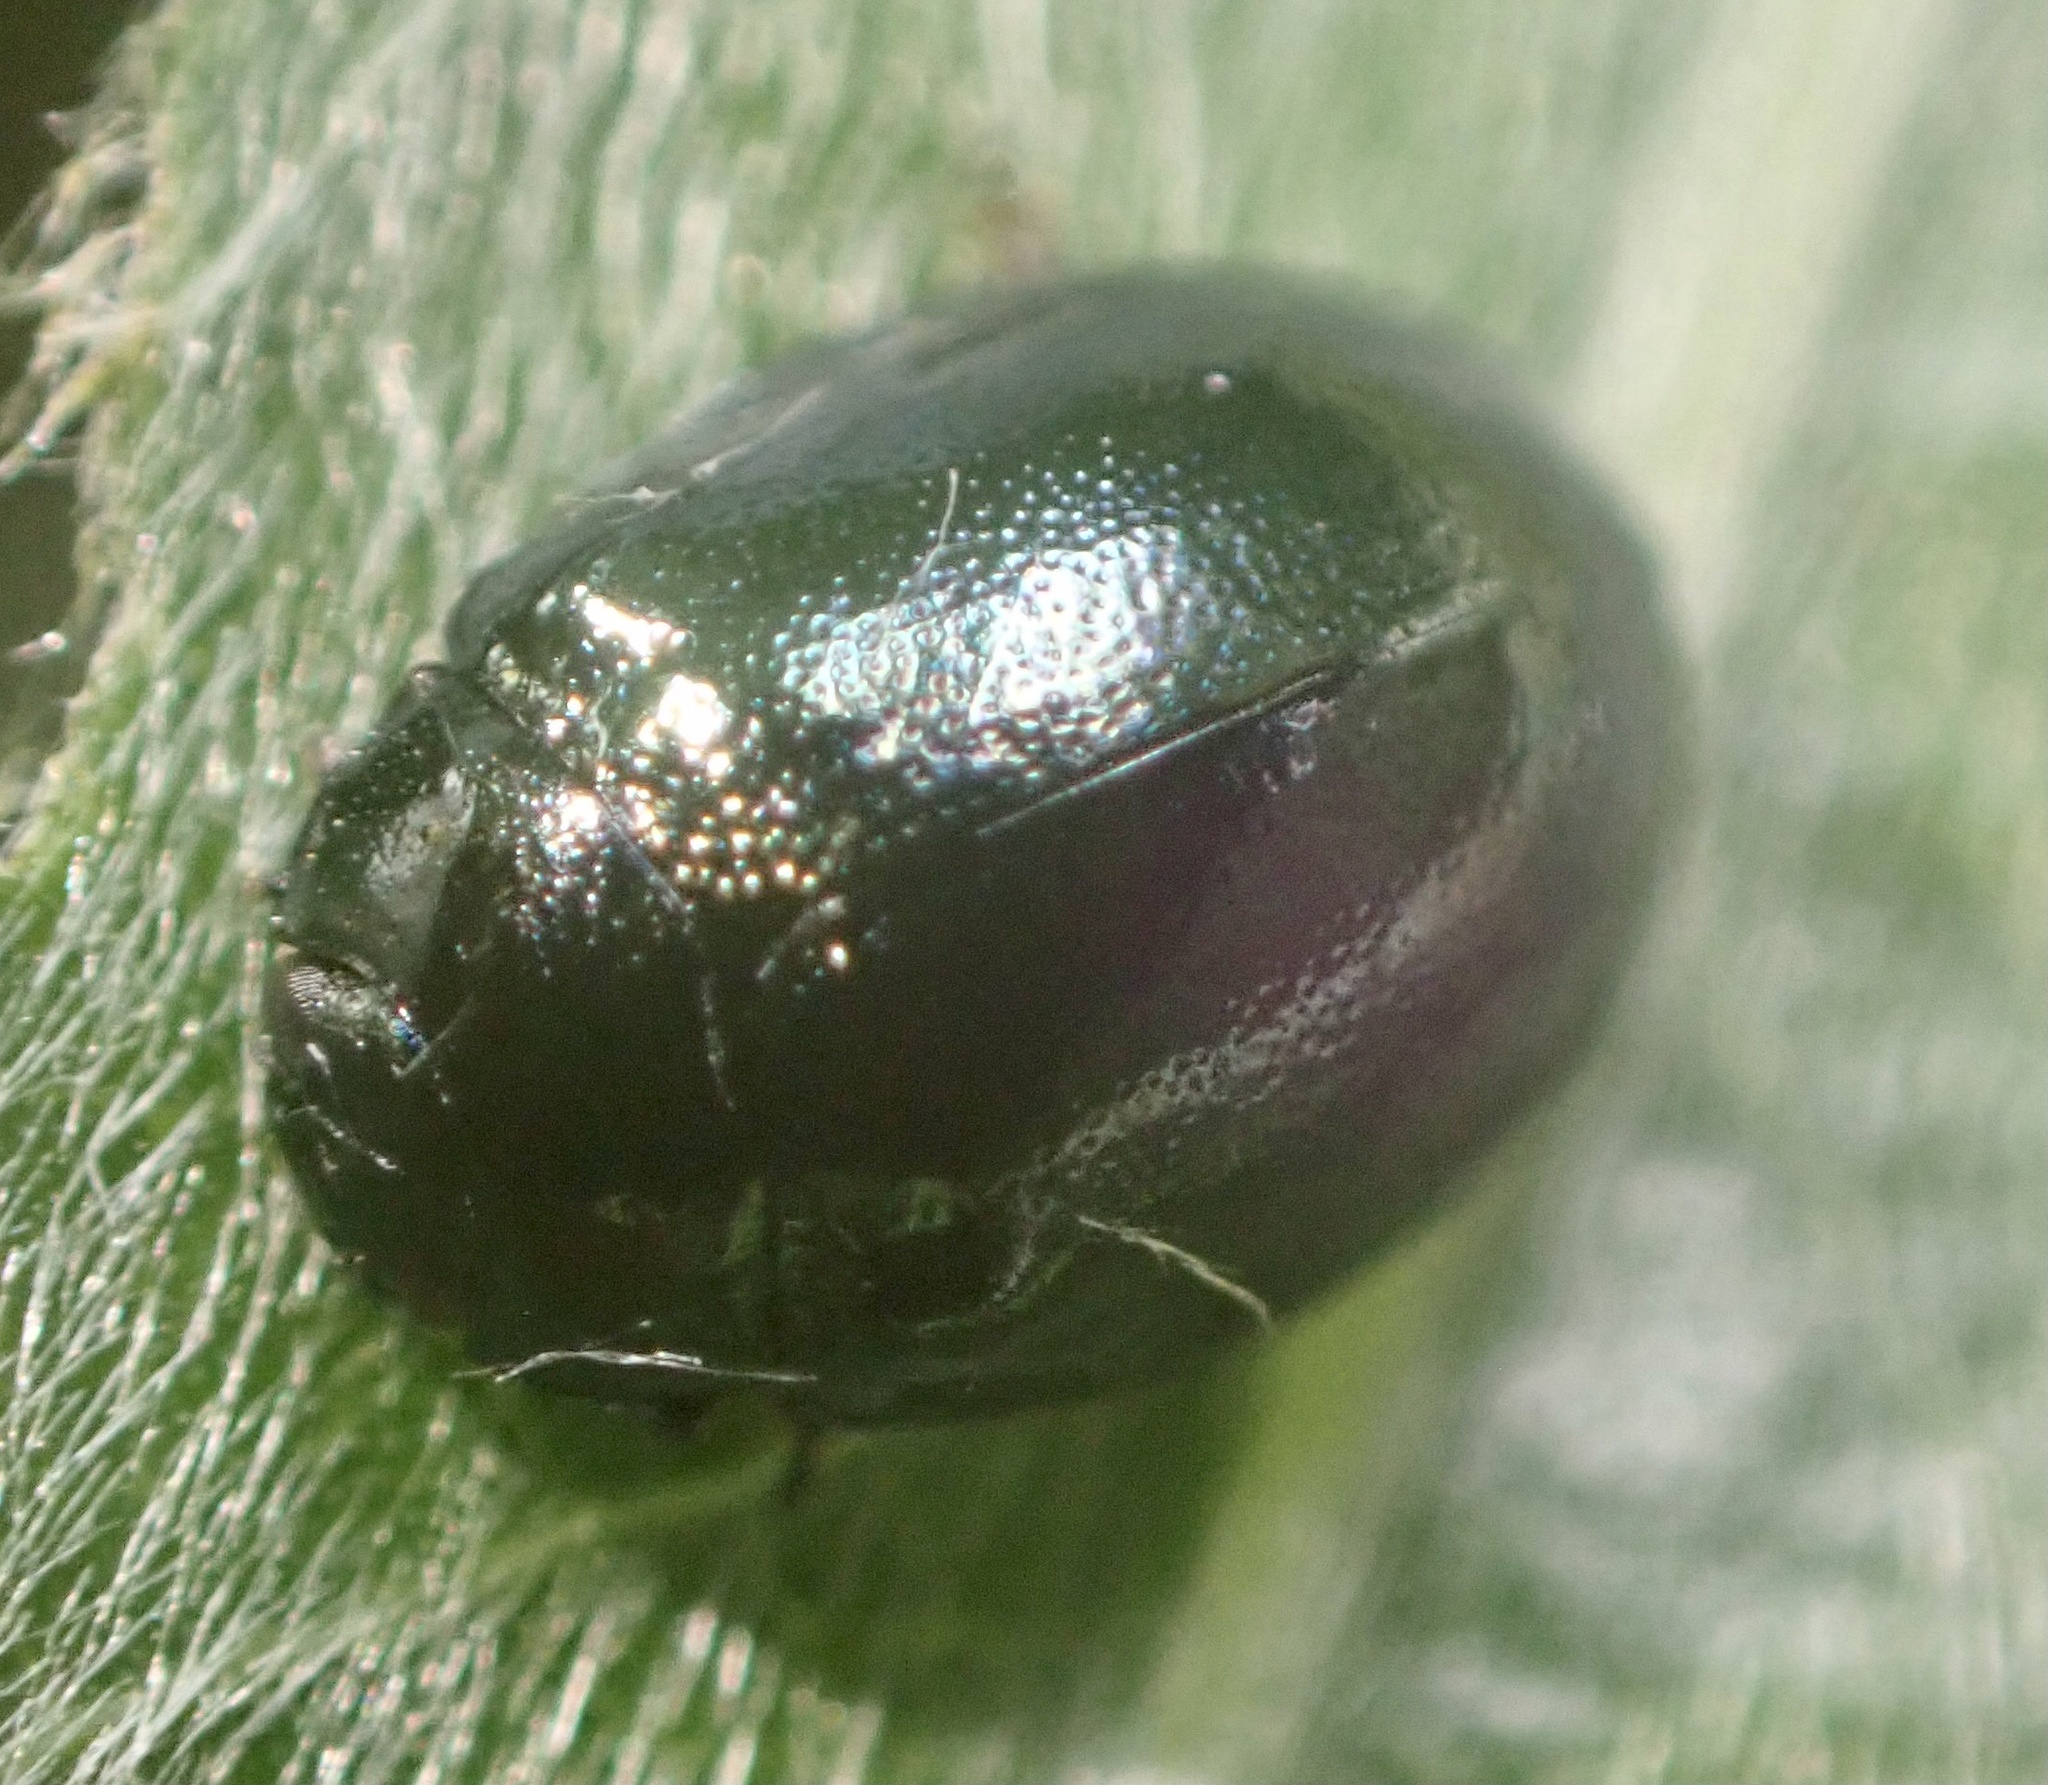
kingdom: Animalia
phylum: Arthropoda
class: Insecta
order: Coleoptera
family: Chrysomelidae
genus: Plagiodera
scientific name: Plagiodera versicolora
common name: Imported willow leaf beetle
